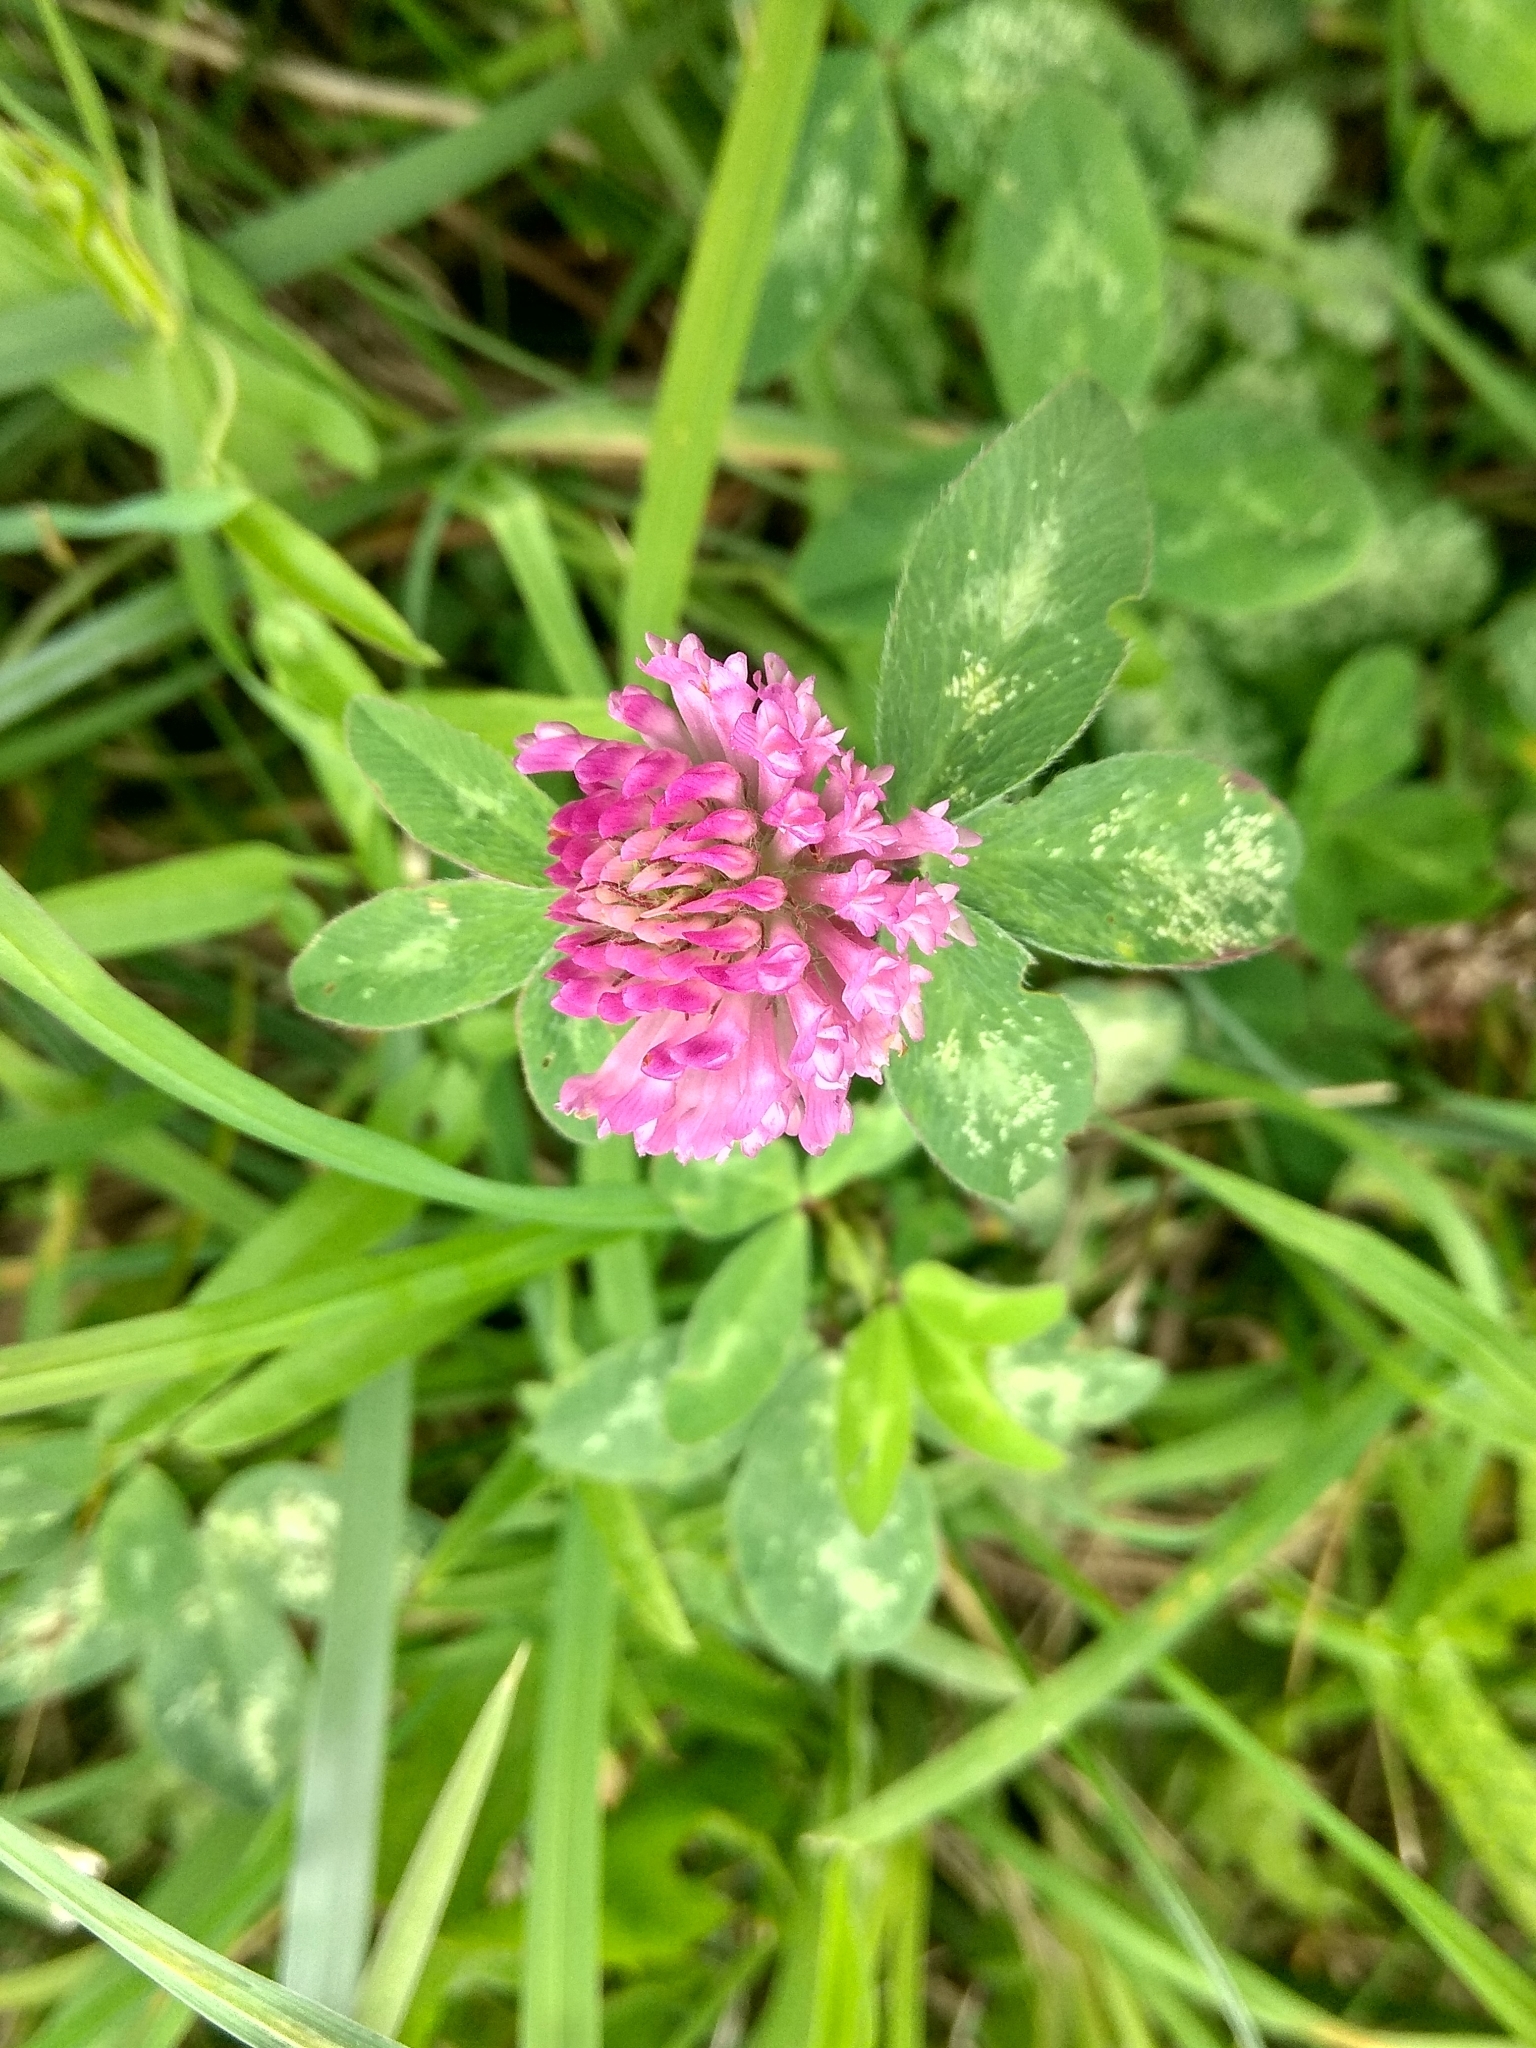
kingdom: Plantae
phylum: Tracheophyta
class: Magnoliopsida
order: Fabales
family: Fabaceae
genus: Trifolium
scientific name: Trifolium pratense
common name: Red clover
